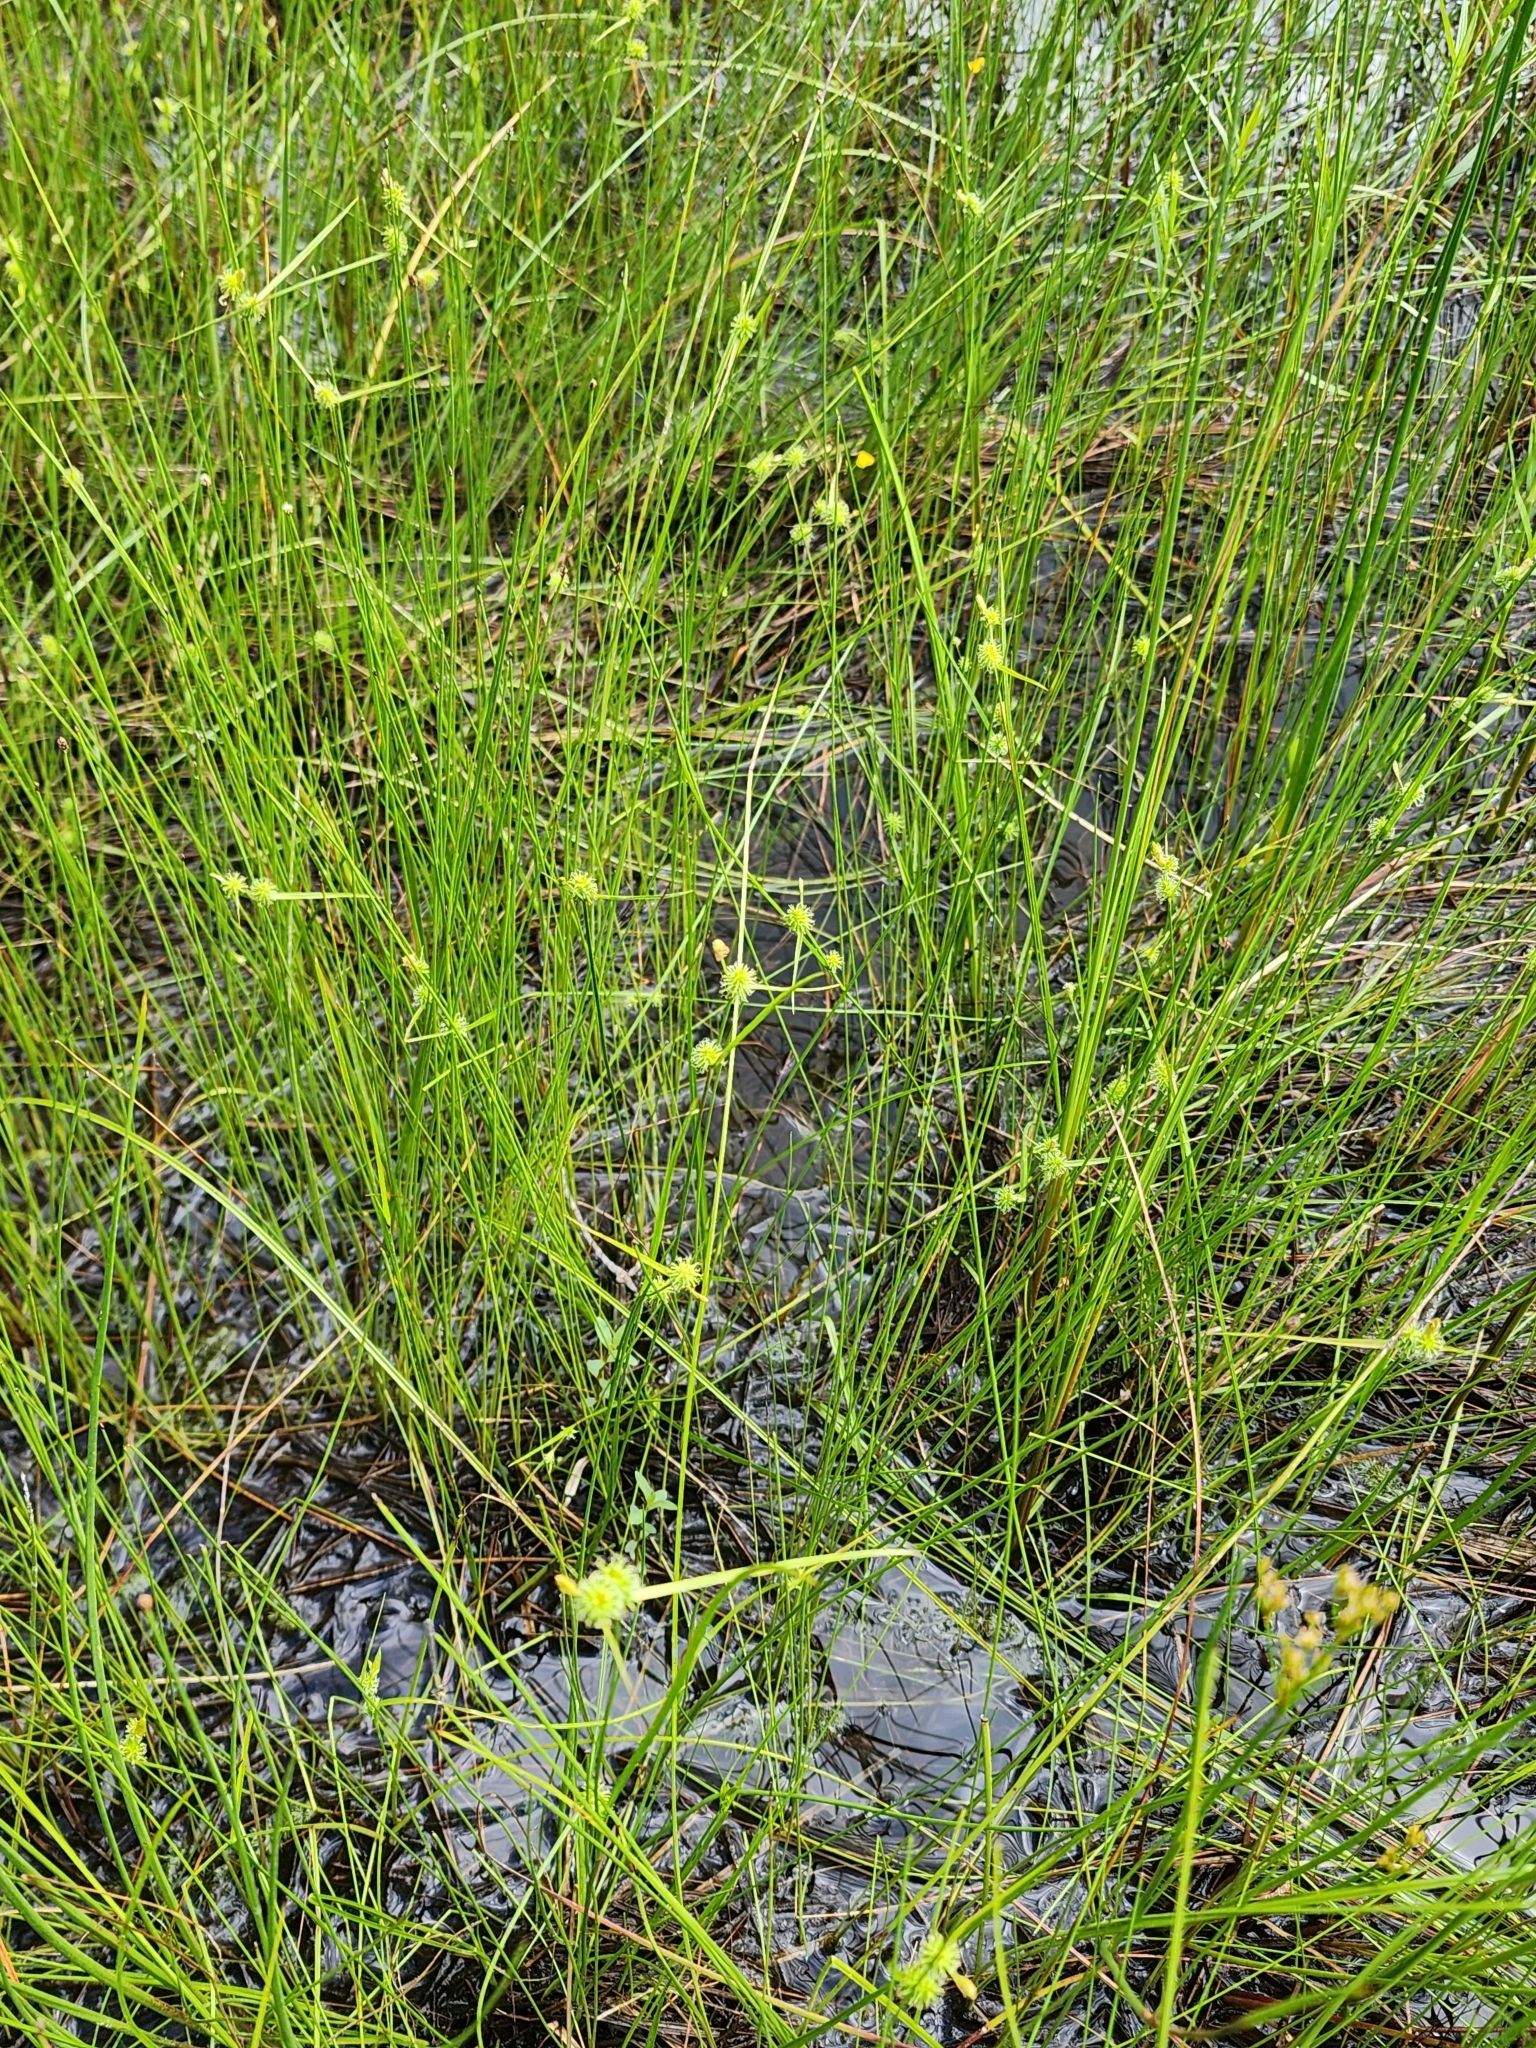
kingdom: Plantae
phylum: Tracheophyta
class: Liliopsida
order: Poales
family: Cyperaceae
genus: Carex
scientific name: Carex cryptolepis
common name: Northeastern sedge
